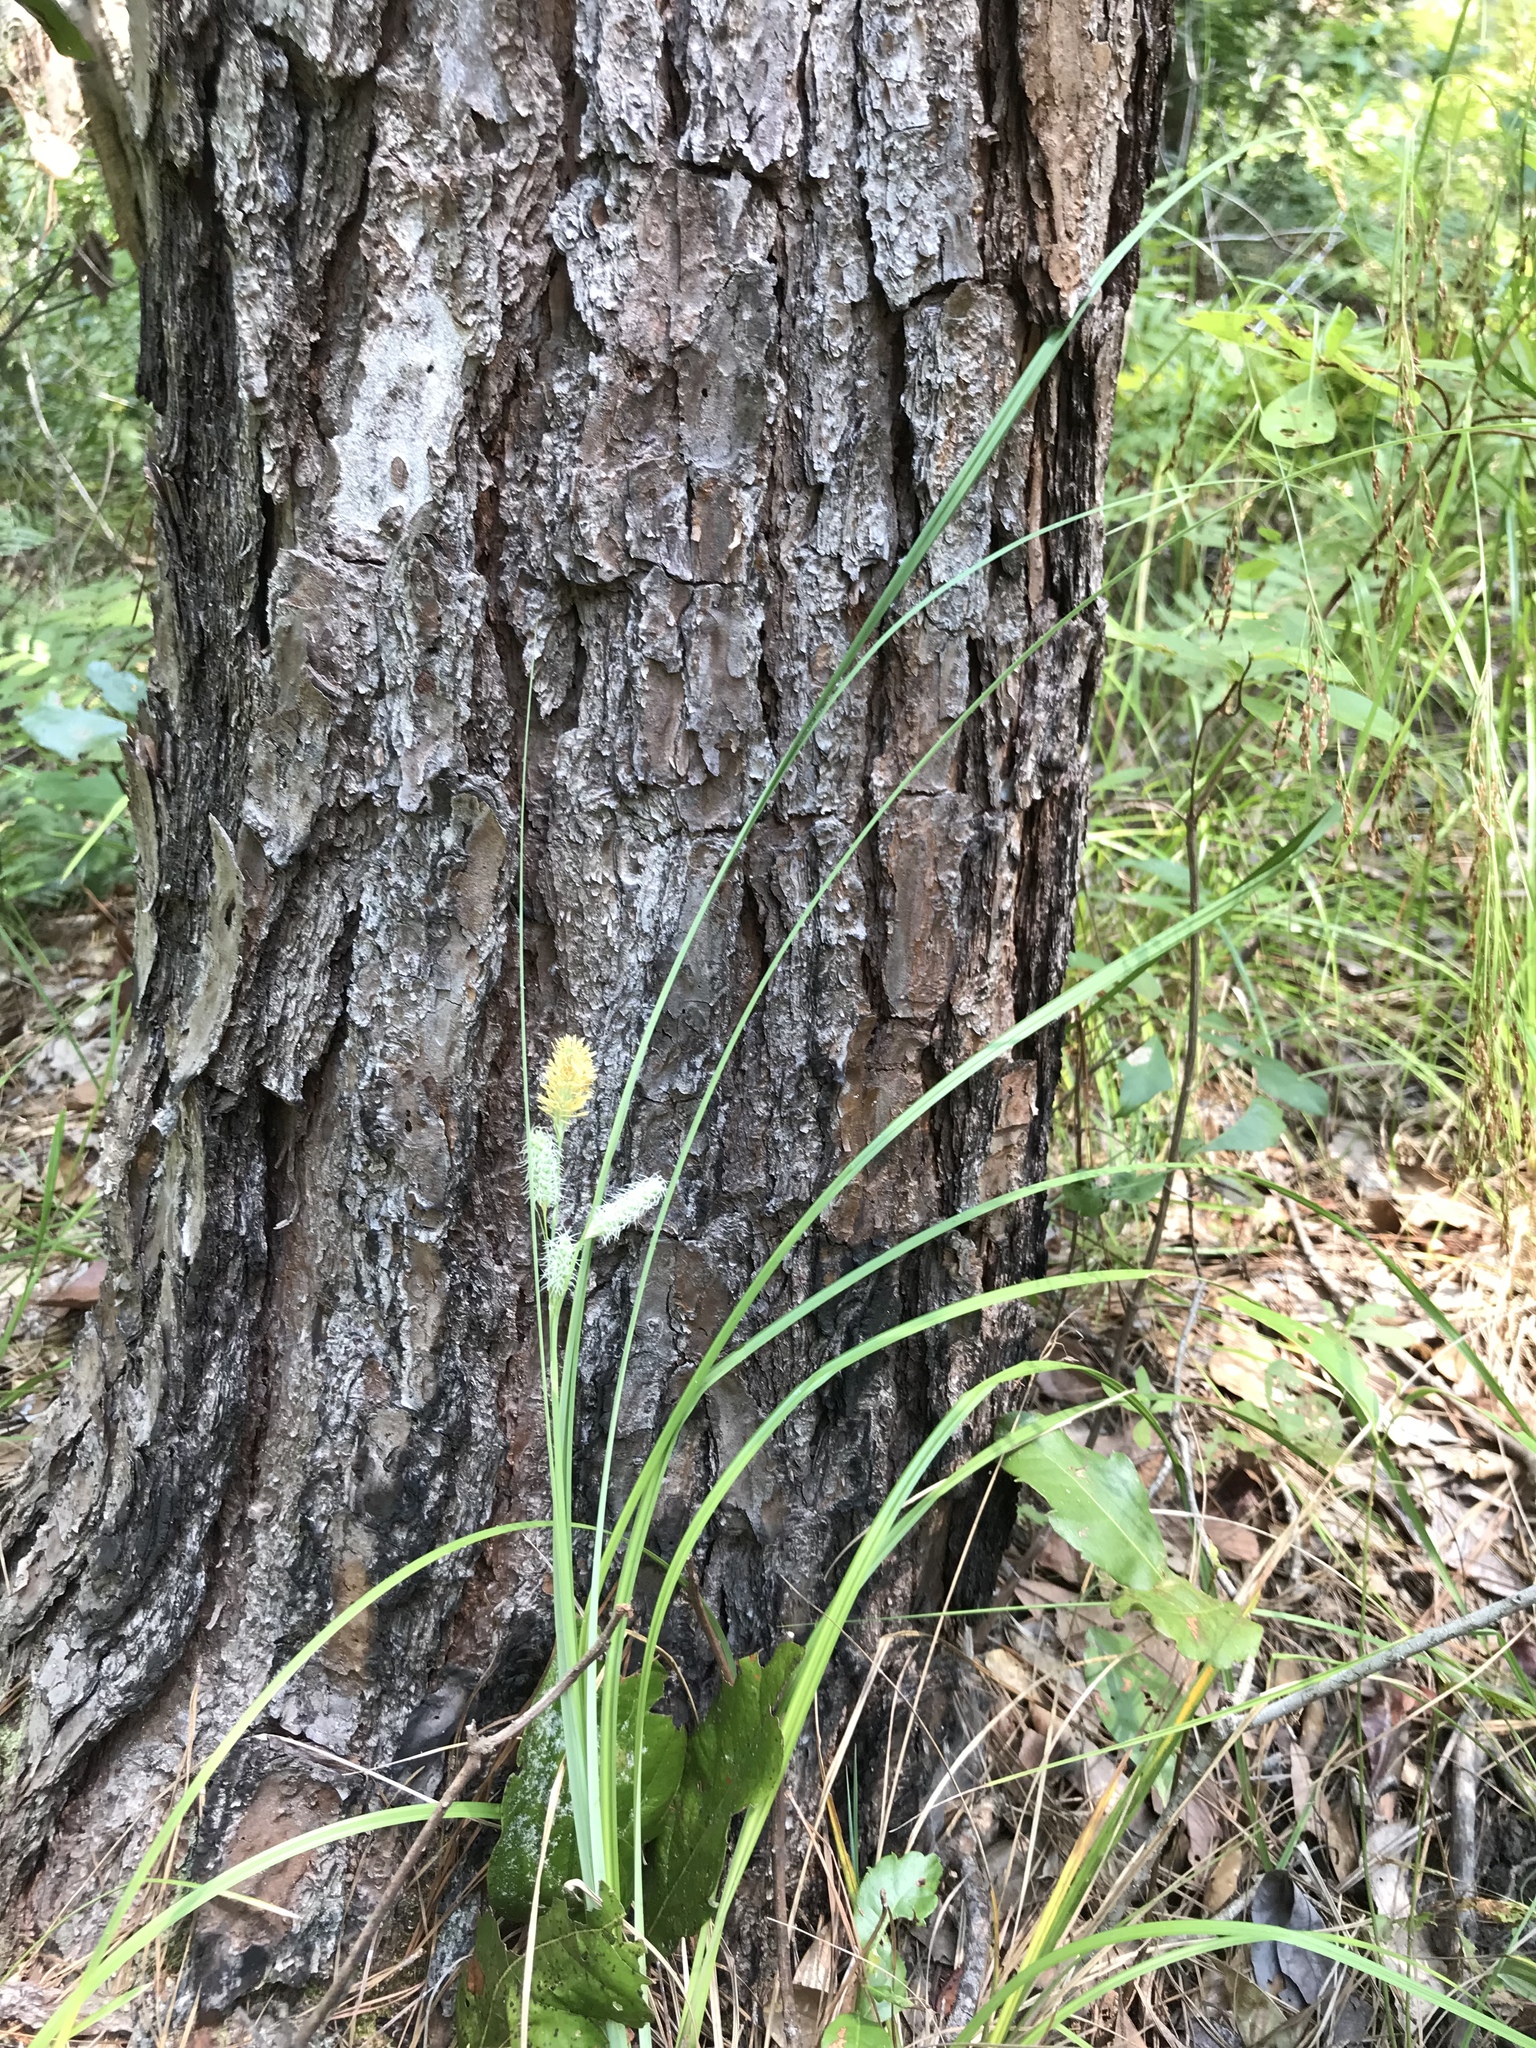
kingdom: Plantae
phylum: Tracheophyta
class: Liliopsida
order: Poales
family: Cyperaceae
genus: Carex
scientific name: Carex glaucescens
